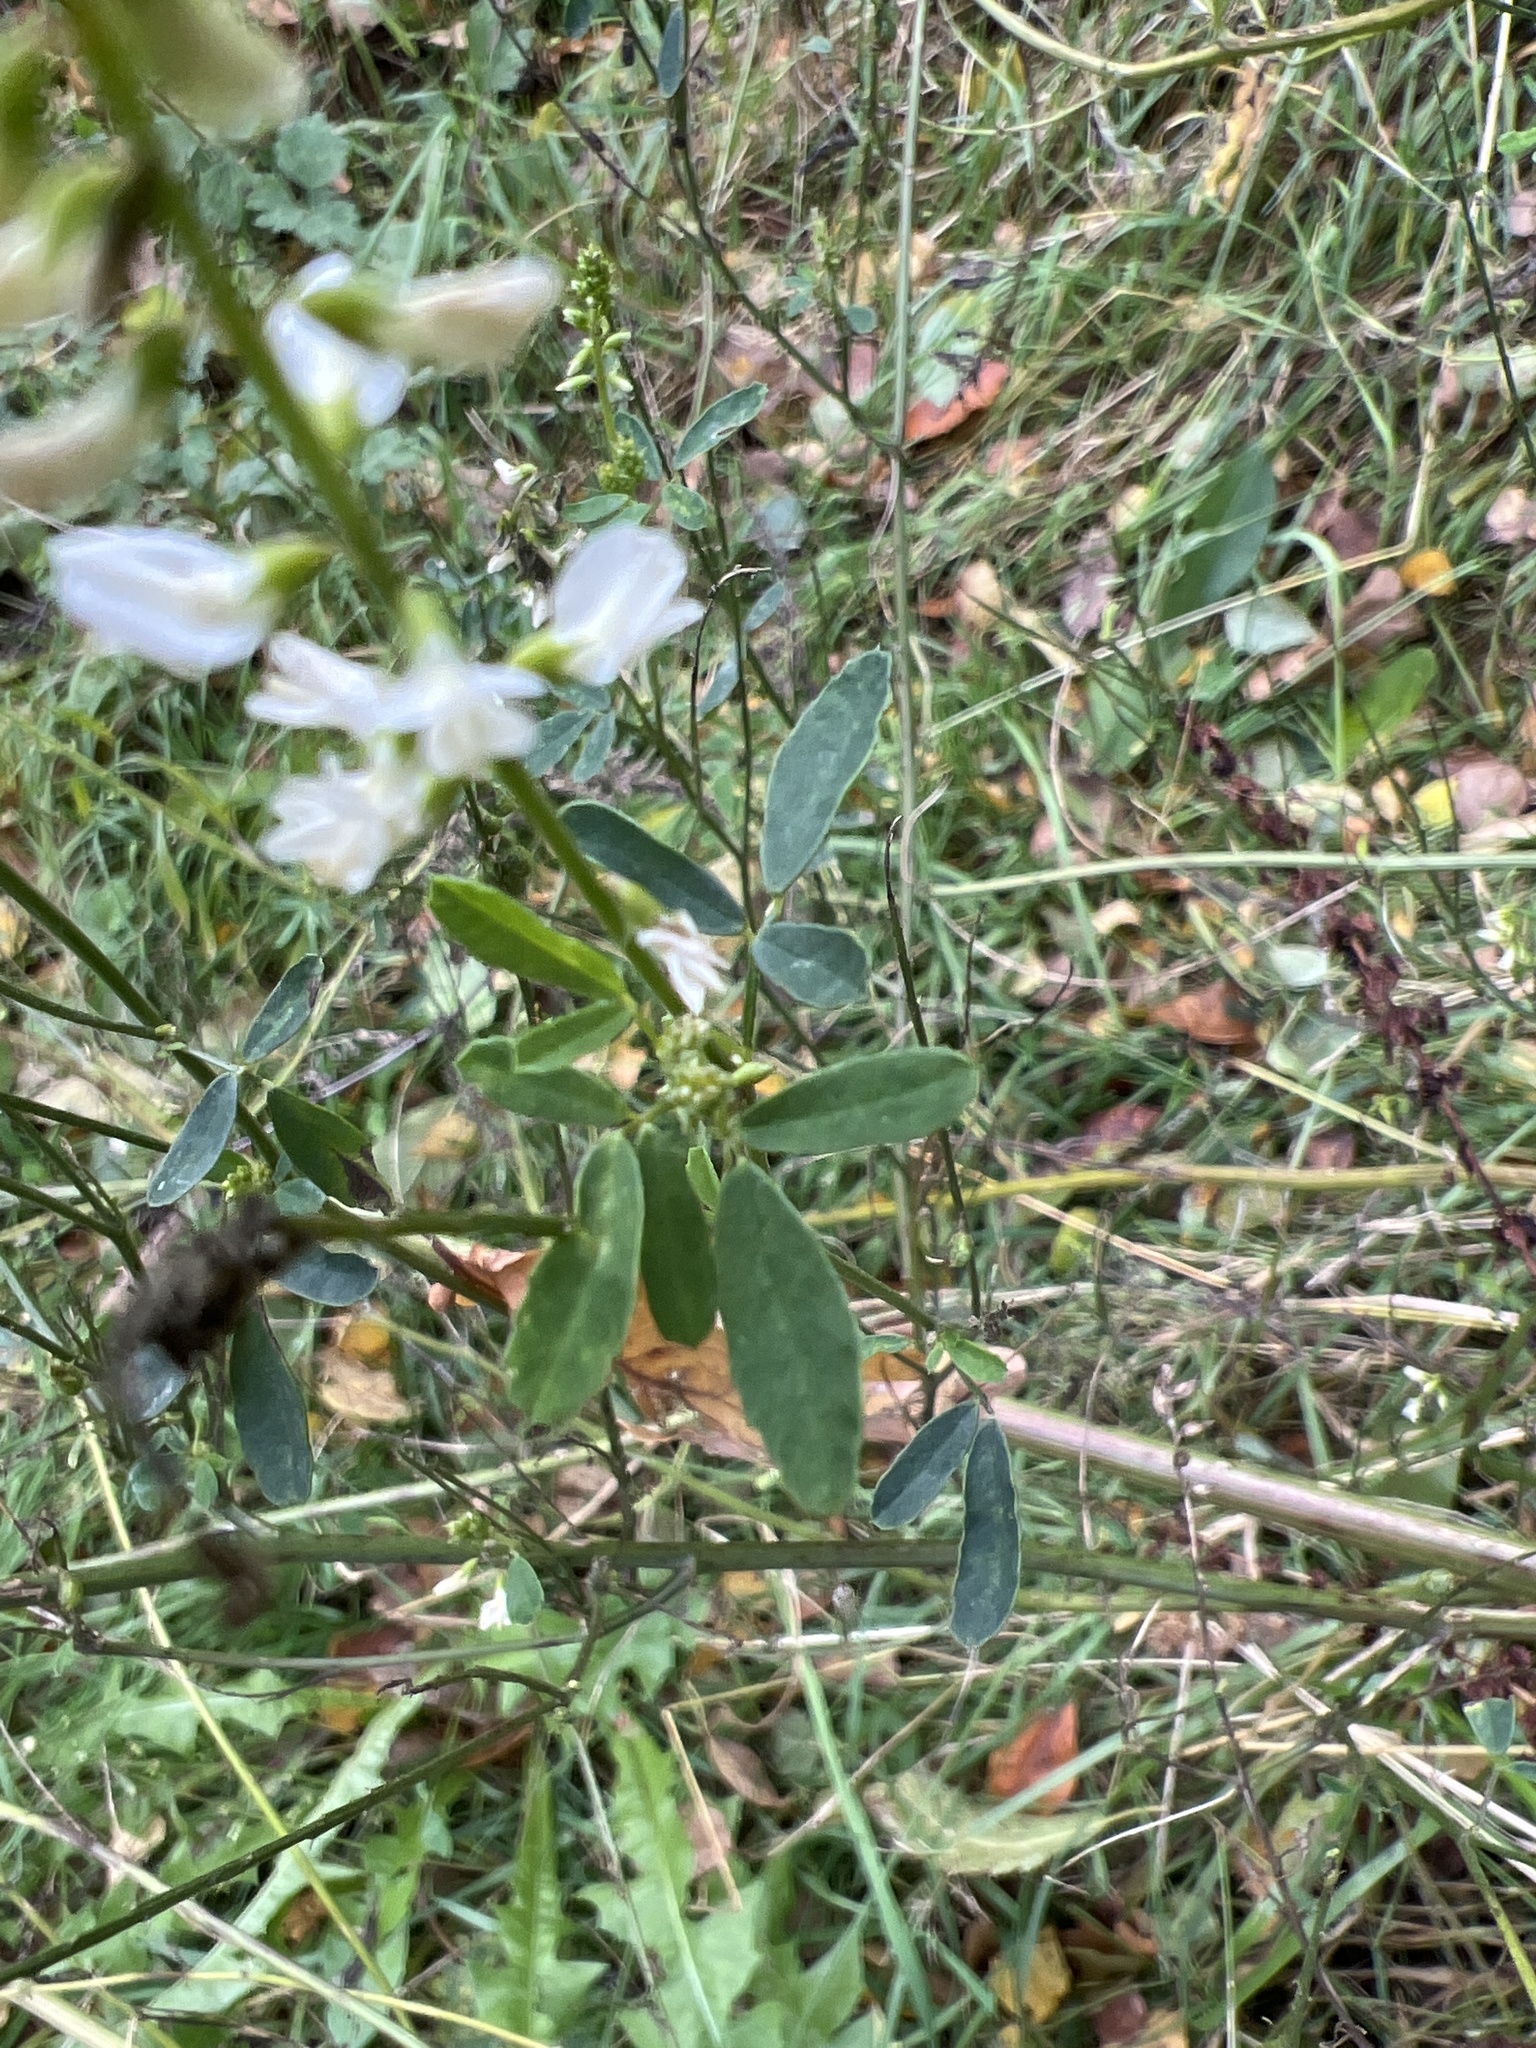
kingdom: Plantae
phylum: Tracheophyta
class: Magnoliopsida
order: Fabales
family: Fabaceae
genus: Melilotus
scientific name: Melilotus albus
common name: White melilot
